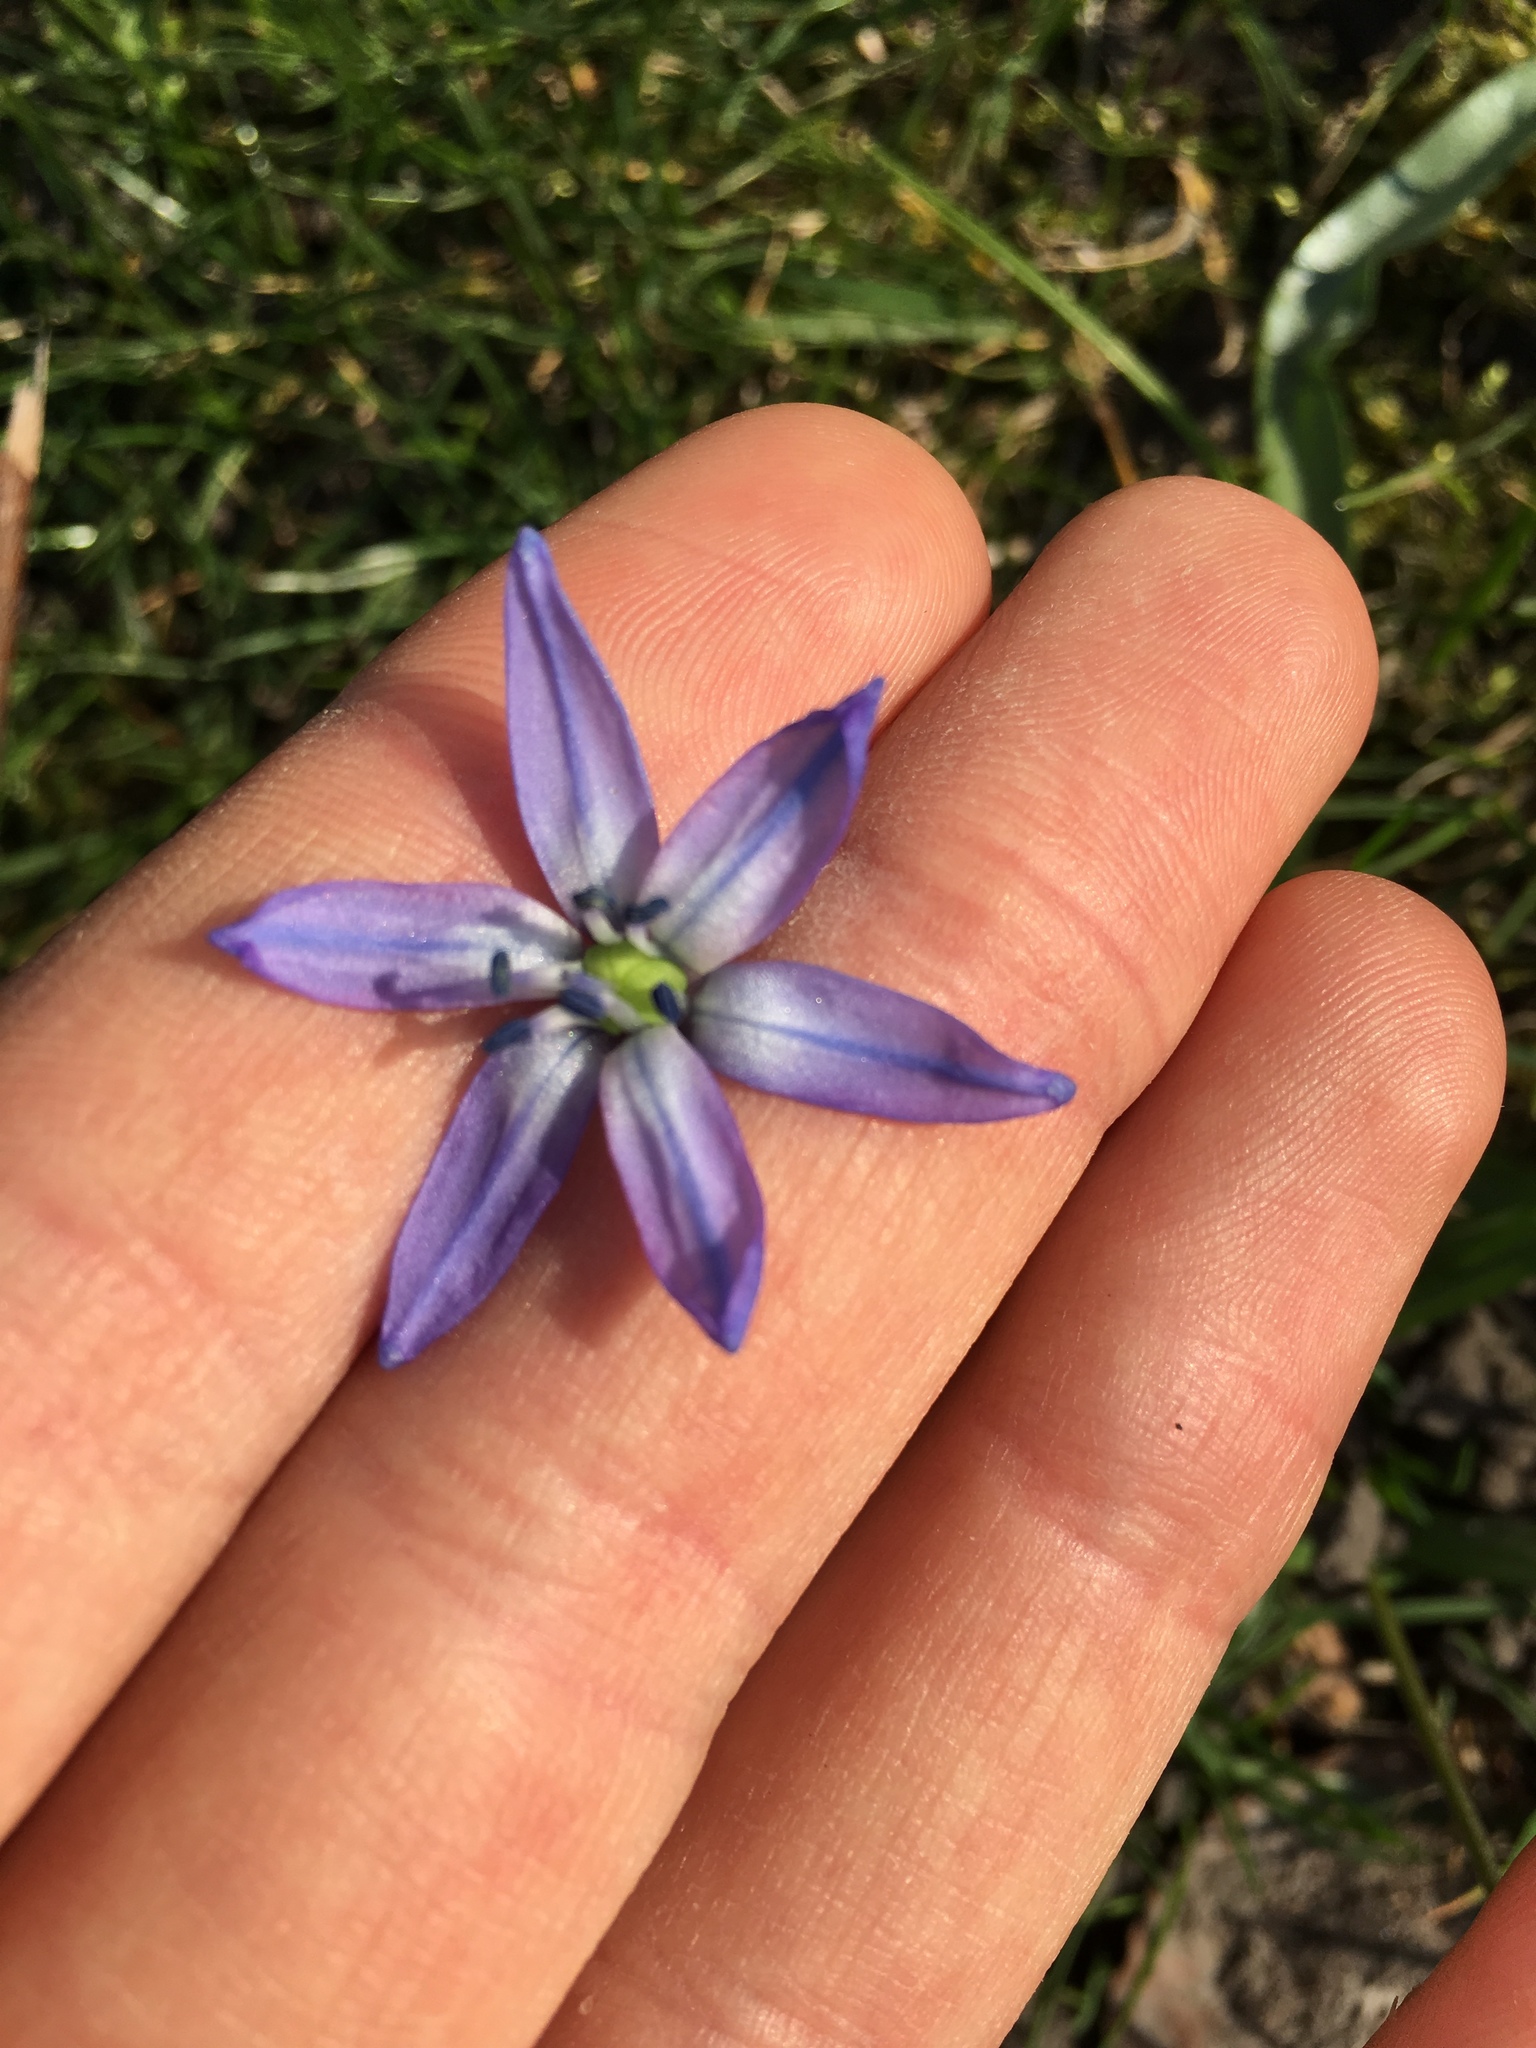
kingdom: Plantae
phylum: Tracheophyta
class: Liliopsida
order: Asparagales
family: Asparagaceae
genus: Scilla
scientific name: Scilla siberica
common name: Siberian squill
